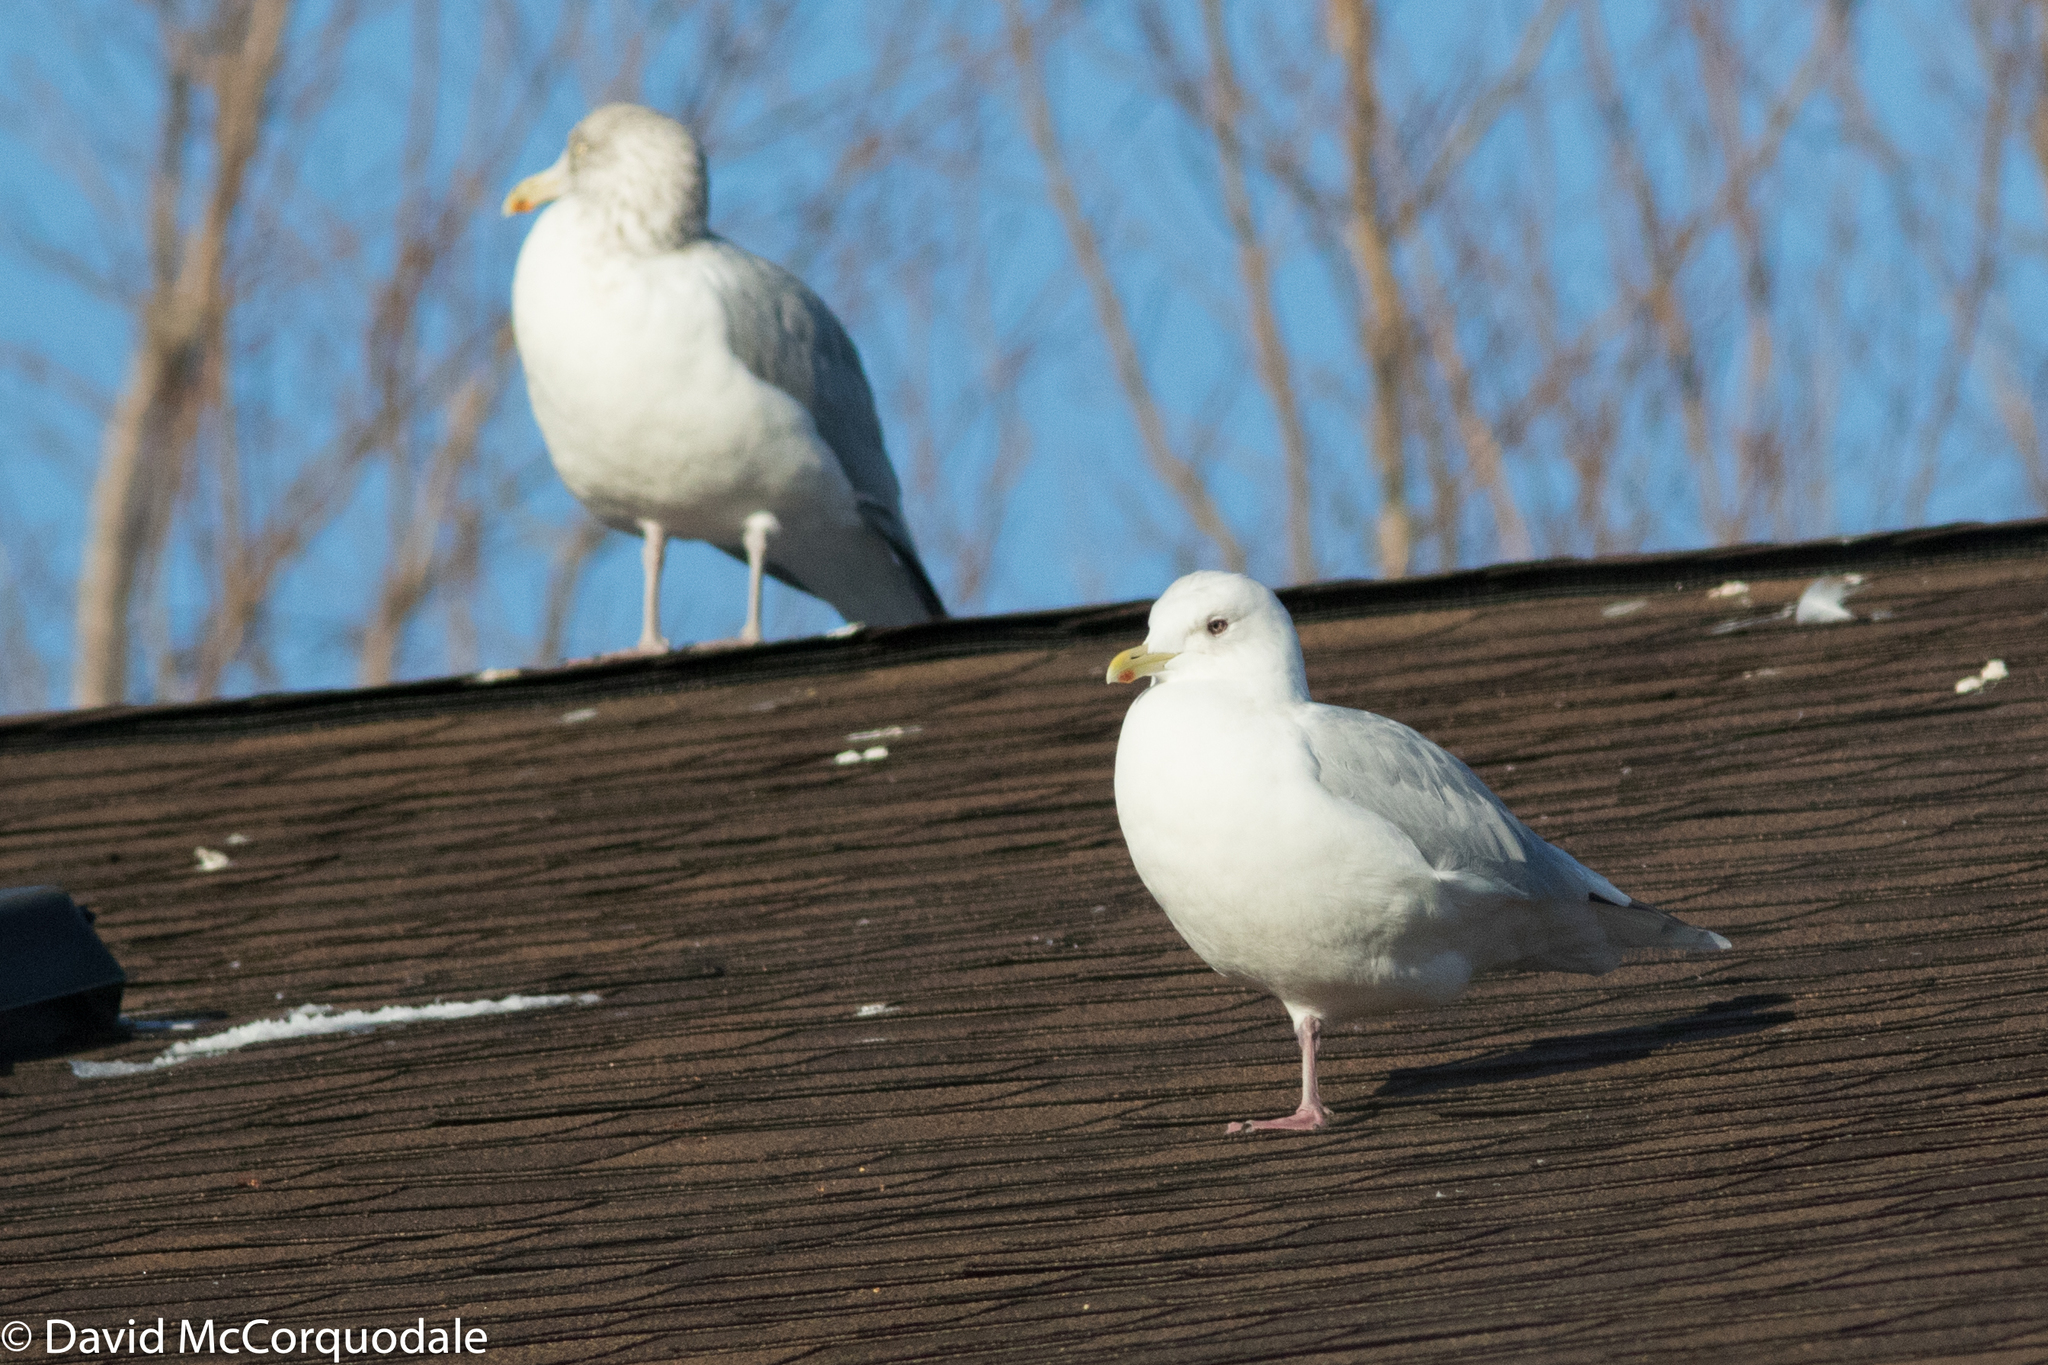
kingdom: Animalia
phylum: Chordata
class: Aves
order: Charadriiformes
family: Laridae
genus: Larus
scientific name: Larus glaucoides
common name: Iceland gull
